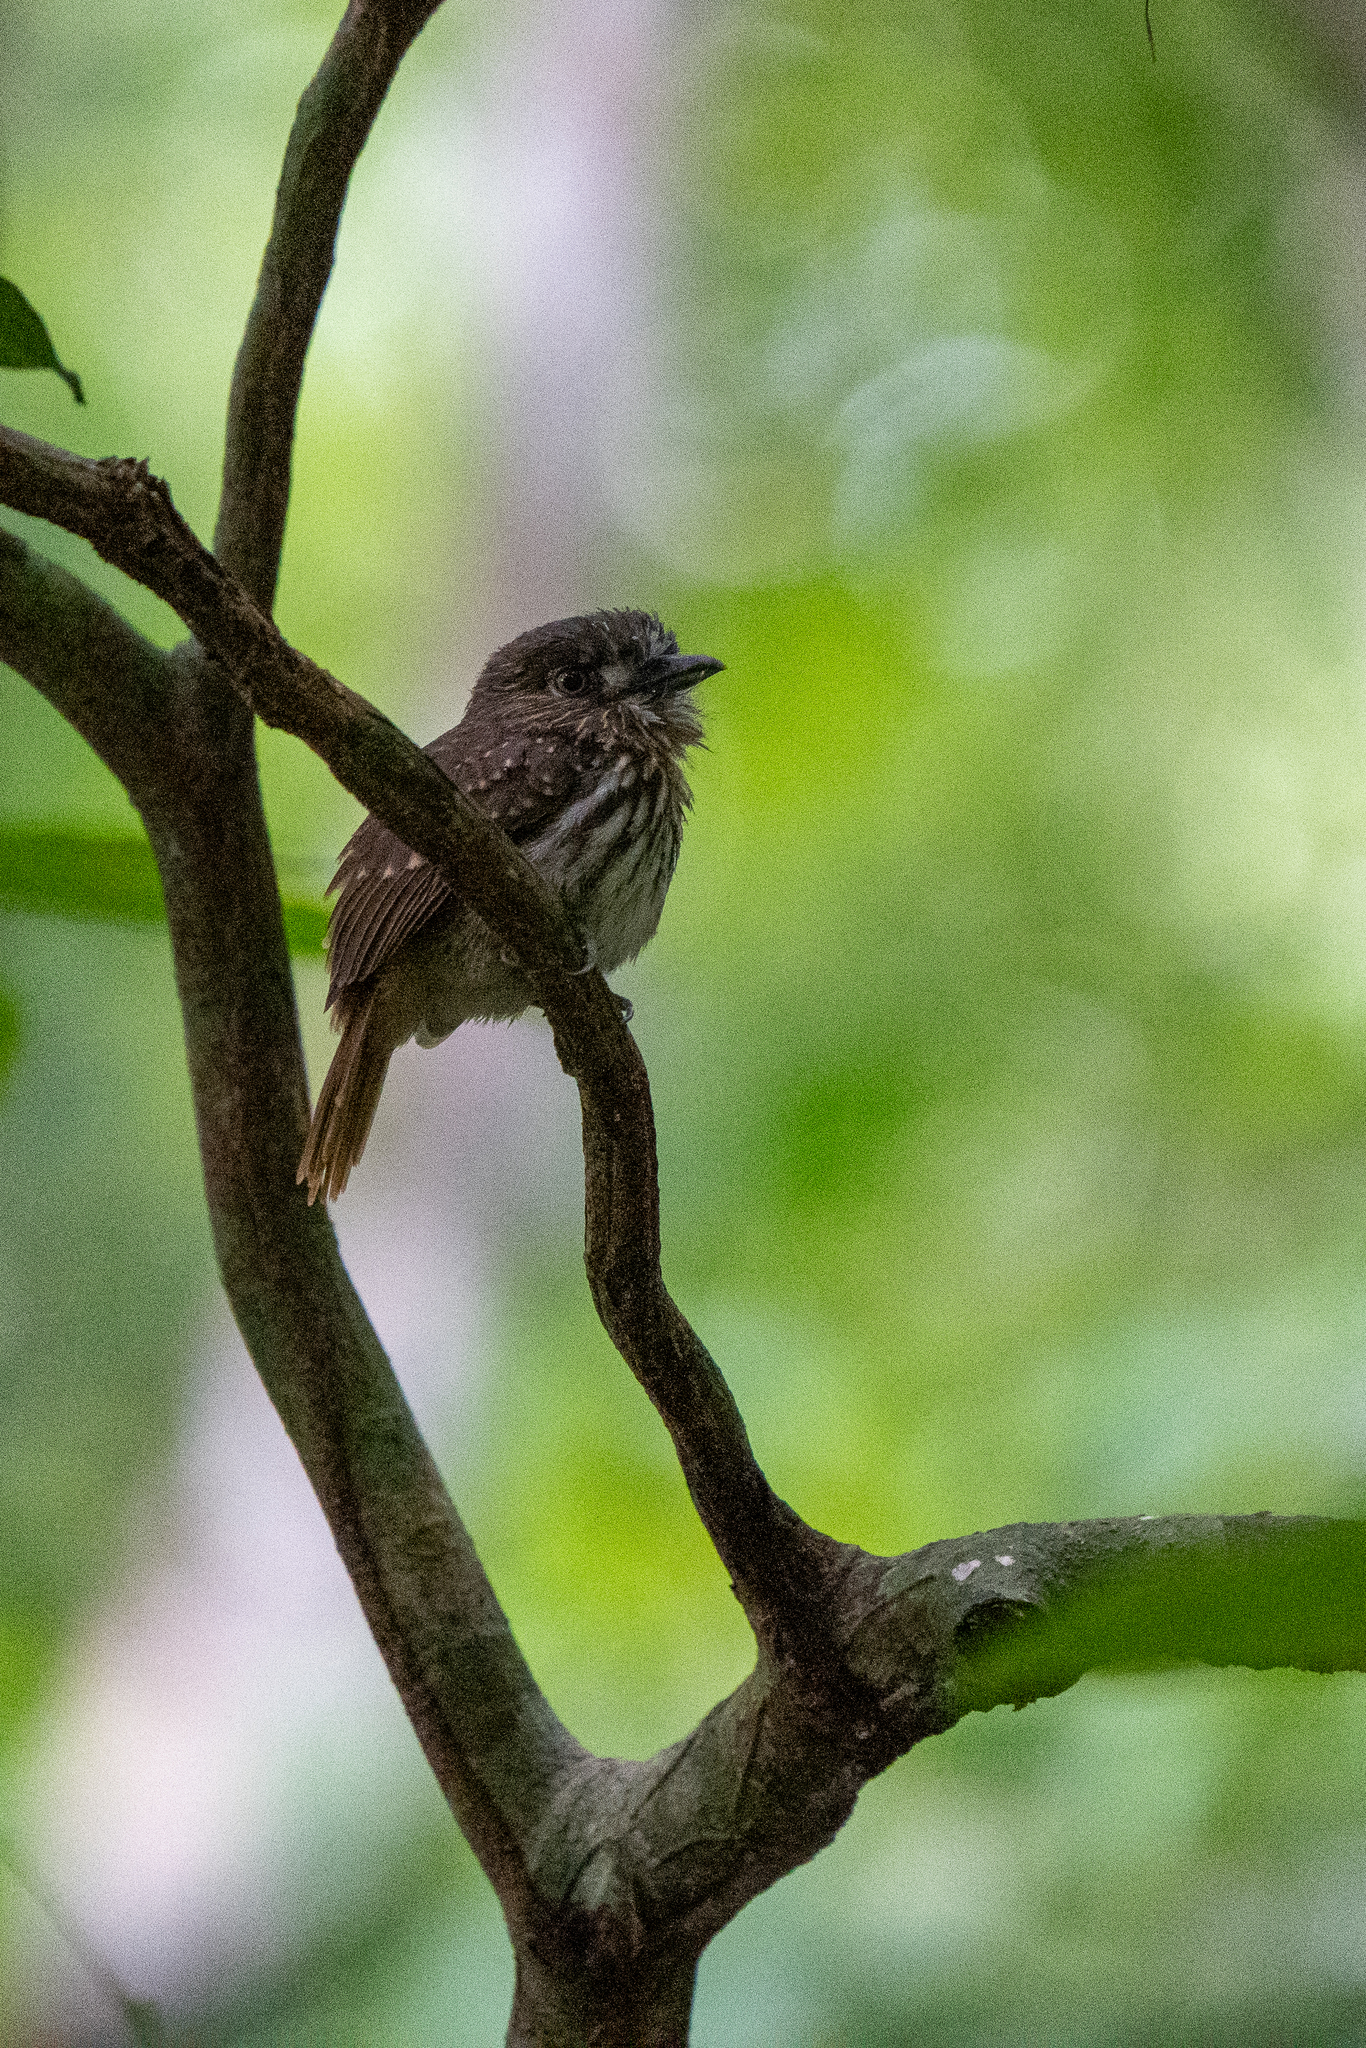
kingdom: Animalia
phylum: Chordata
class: Aves
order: Piciformes
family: Bucconidae
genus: Malacoptila
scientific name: Malacoptila panamensis
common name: White-whiskered puffbird
